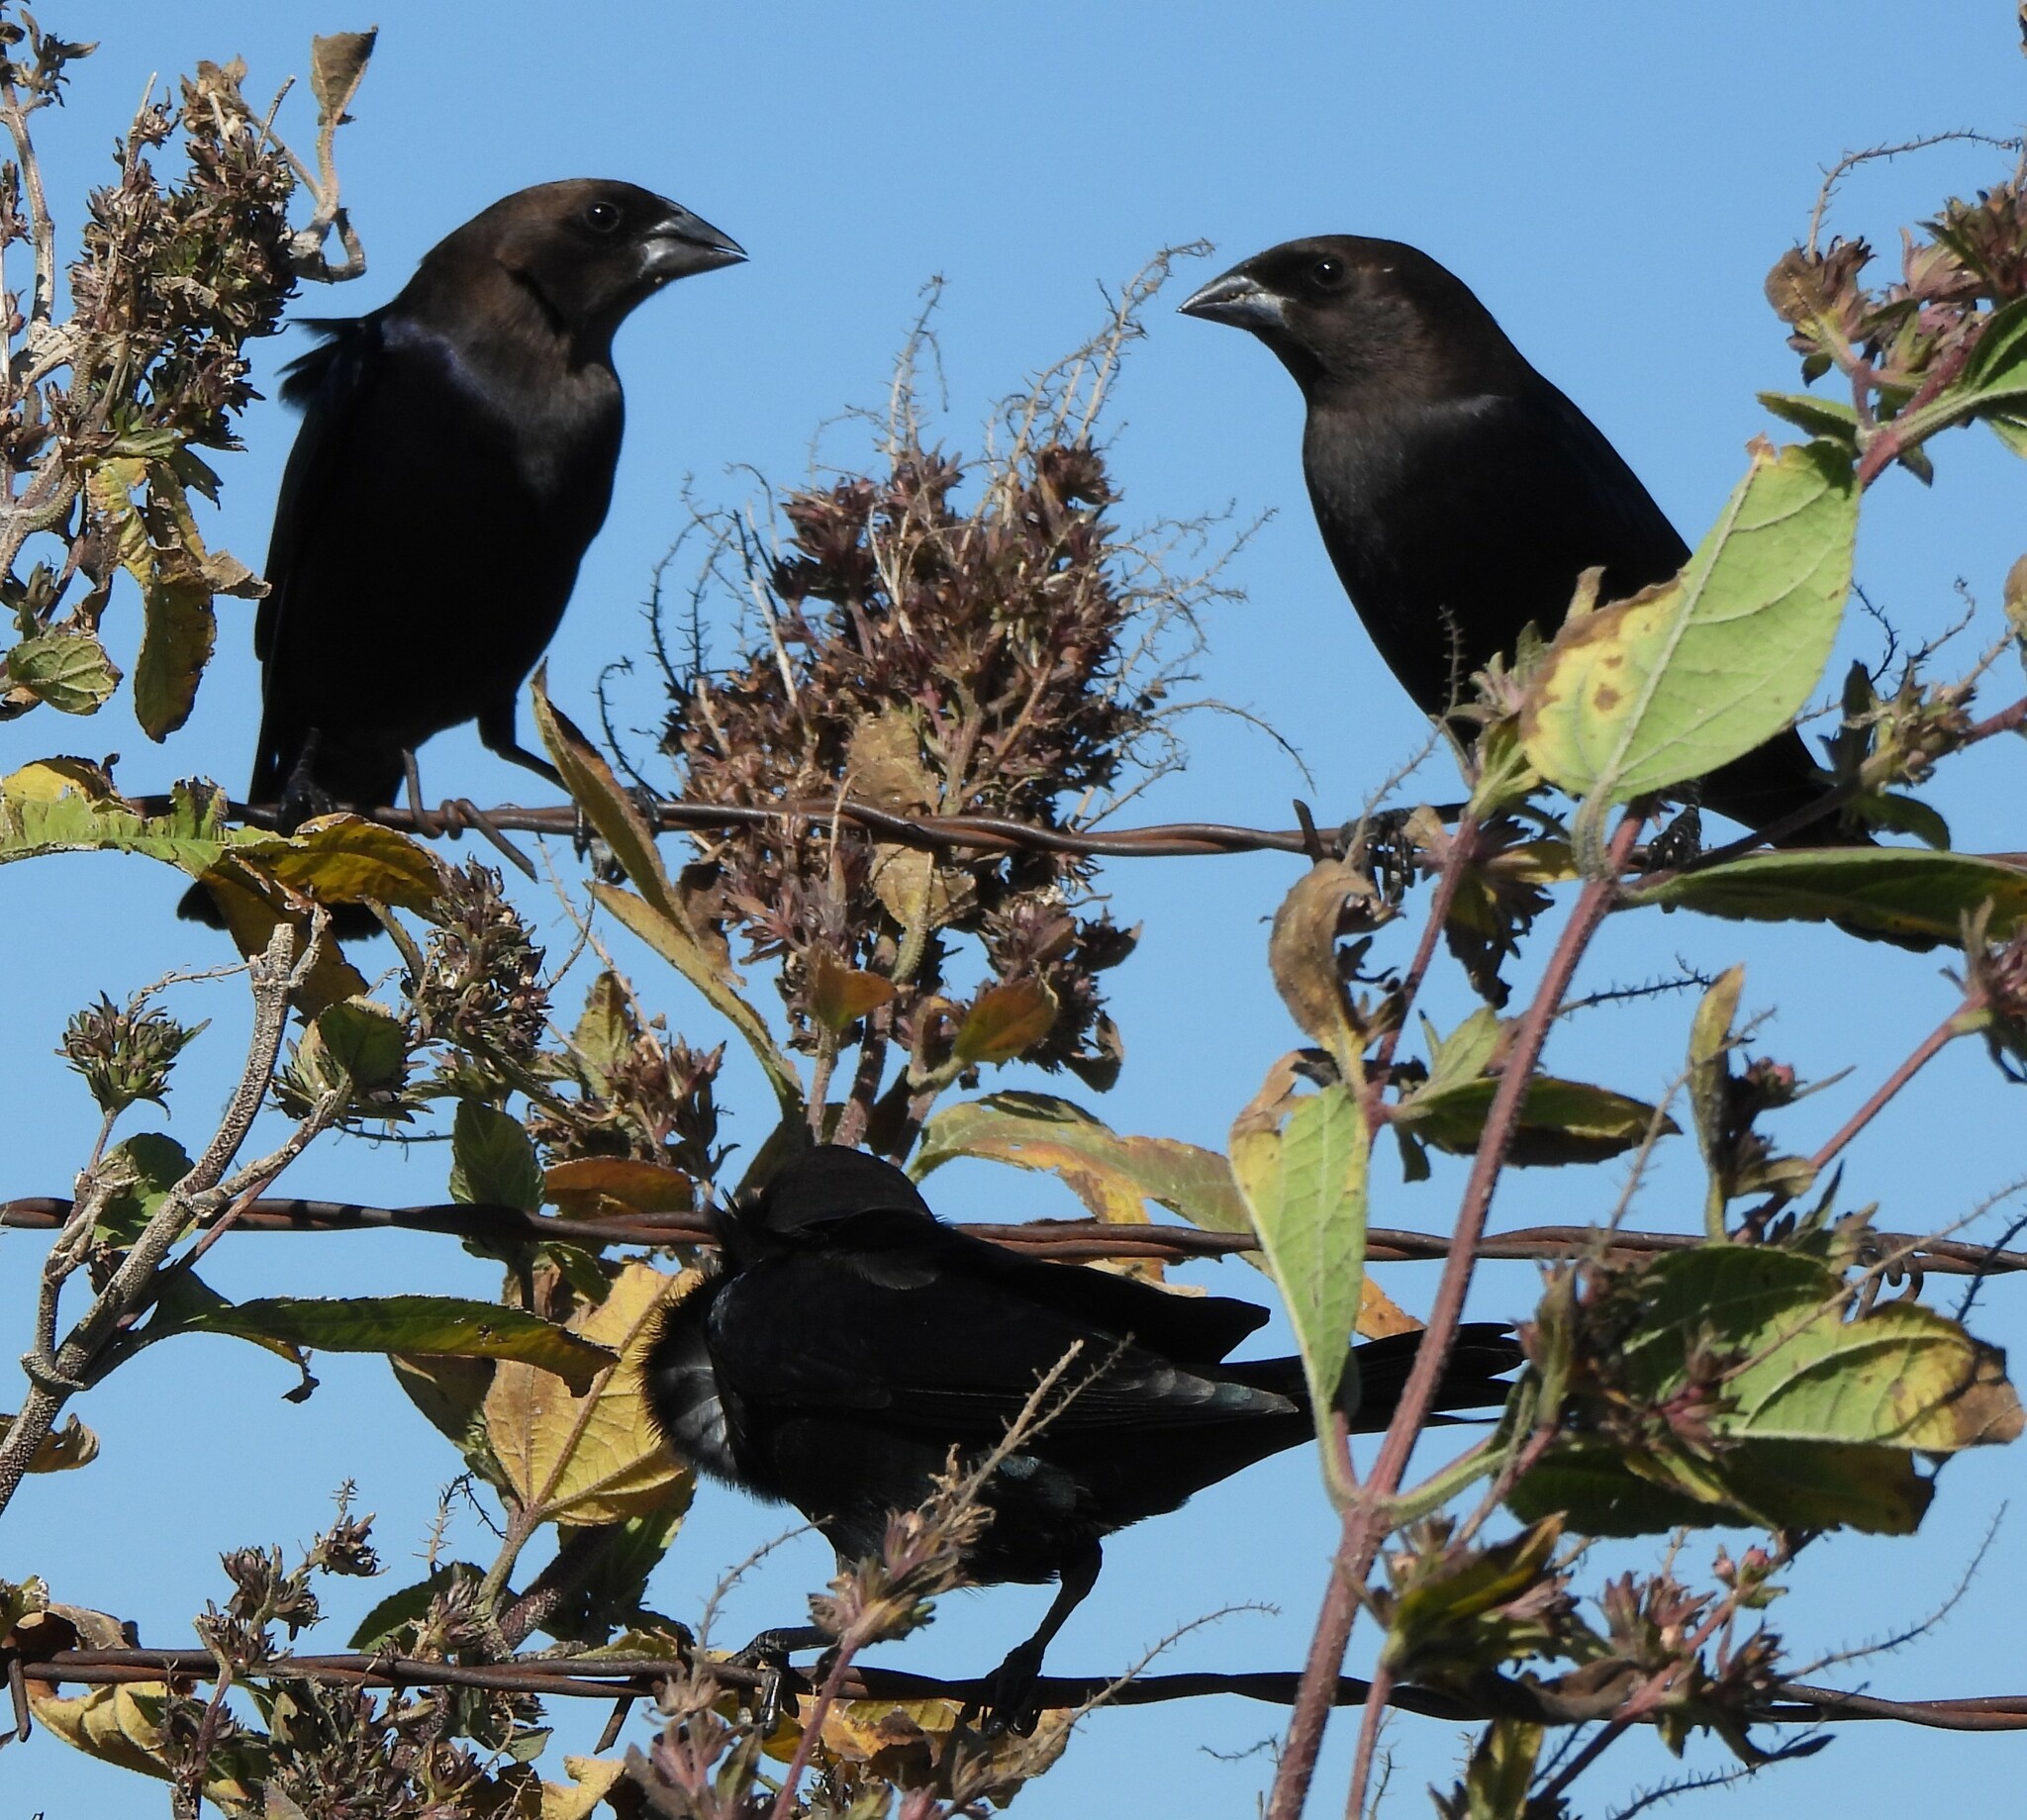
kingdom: Animalia
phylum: Chordata
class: Aves
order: Passeriformes
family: Icteridae
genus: Molothrus
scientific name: Molothrus ater
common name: Brown-headed cowbird
